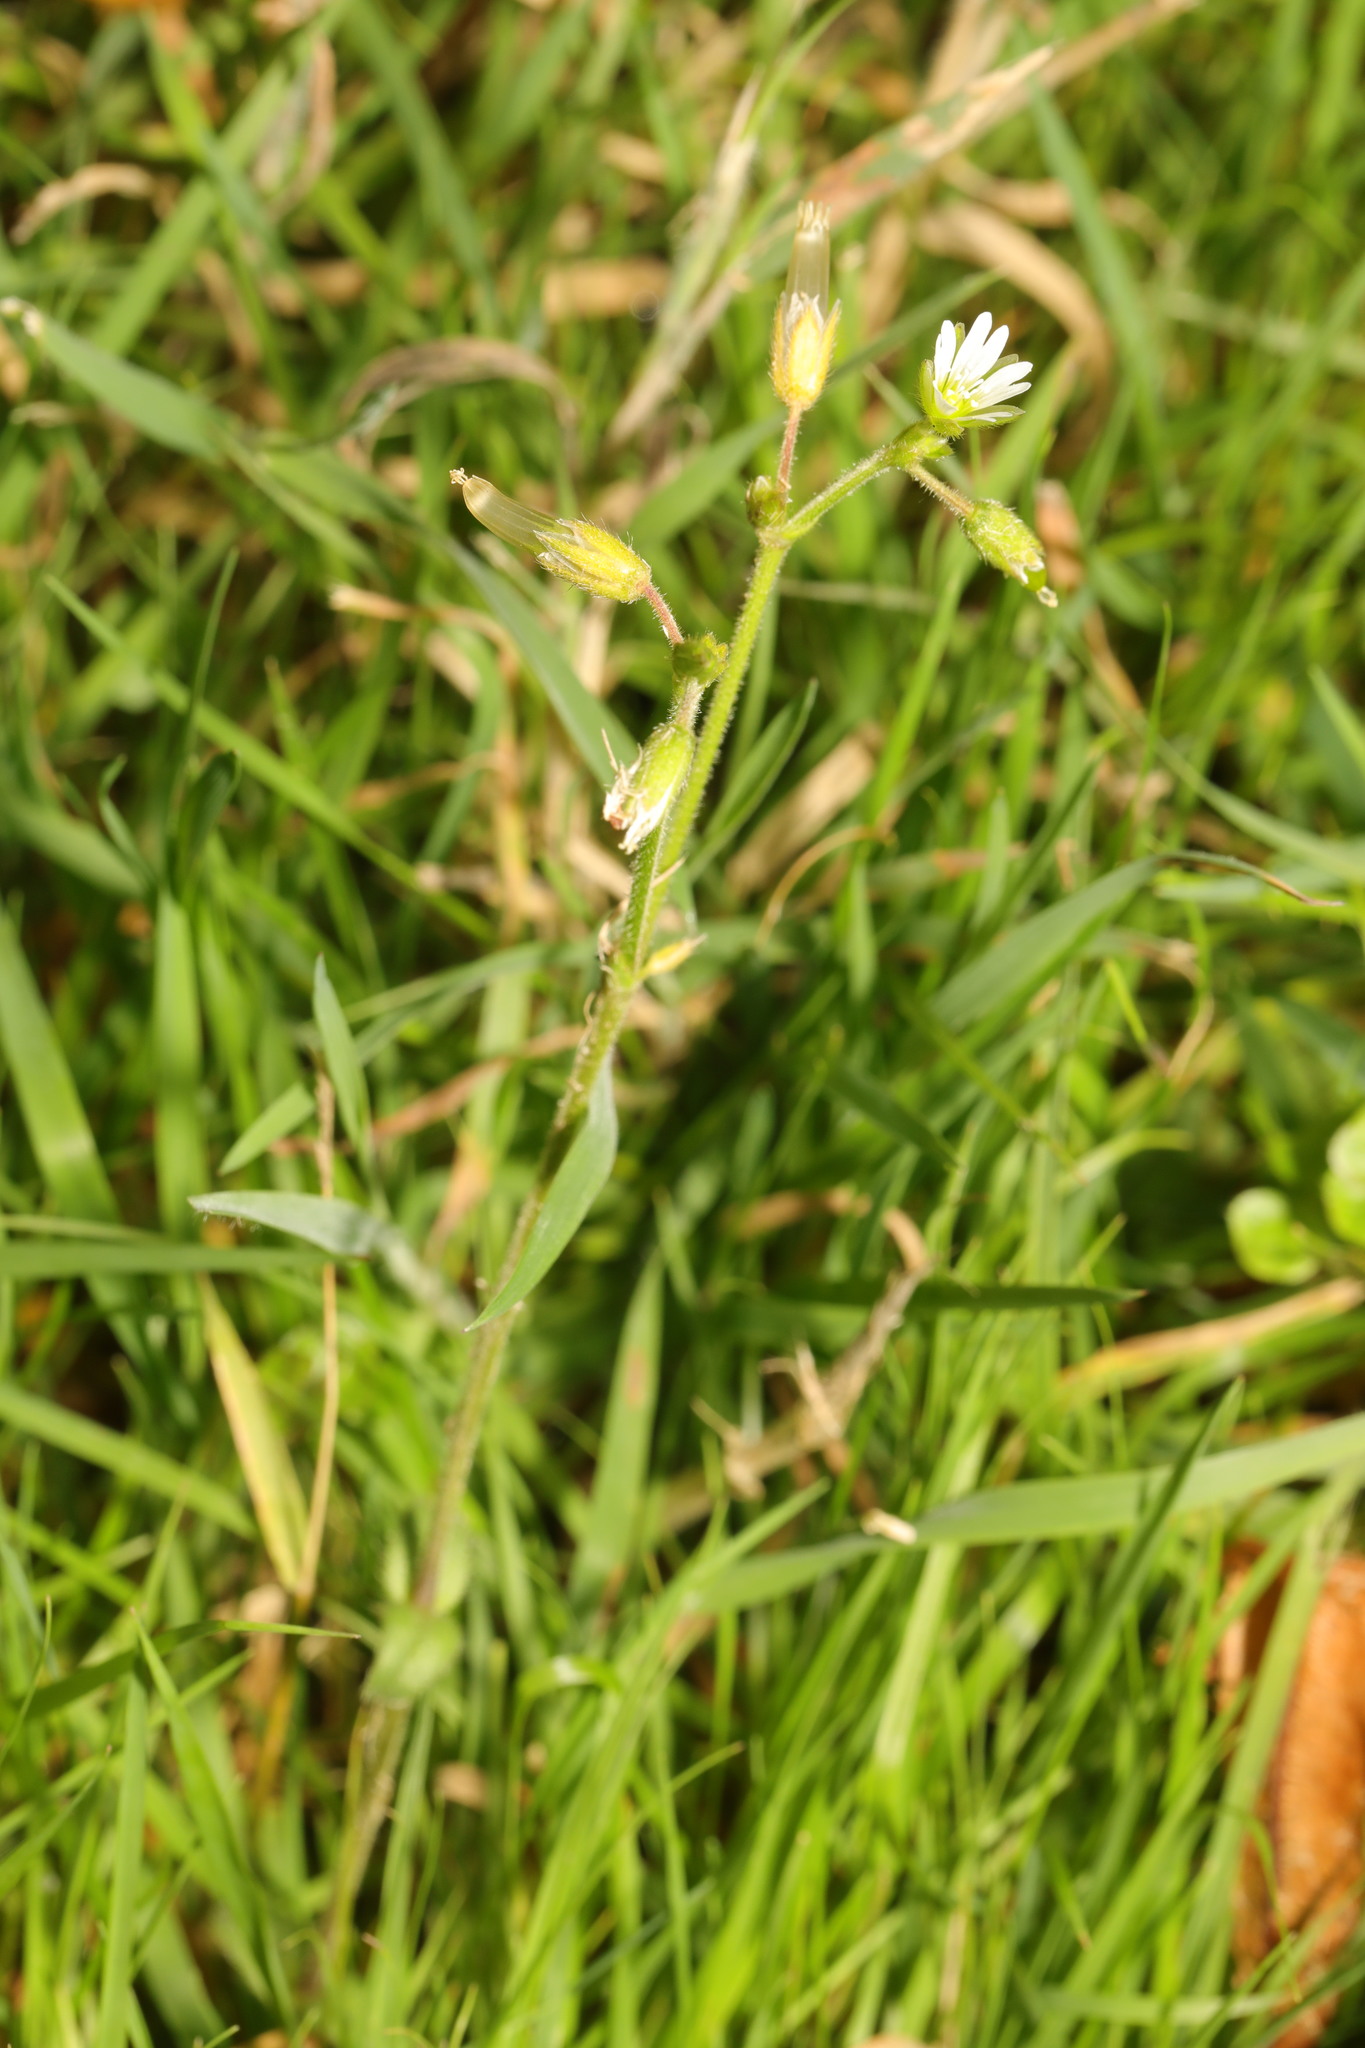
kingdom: Plantae
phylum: Tracheophyta
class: Magnoliopsida
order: Caryophyllales
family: Caryophyllaceae
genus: Cerastium
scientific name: Cerastium fontanum
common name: Common mouse-ear
